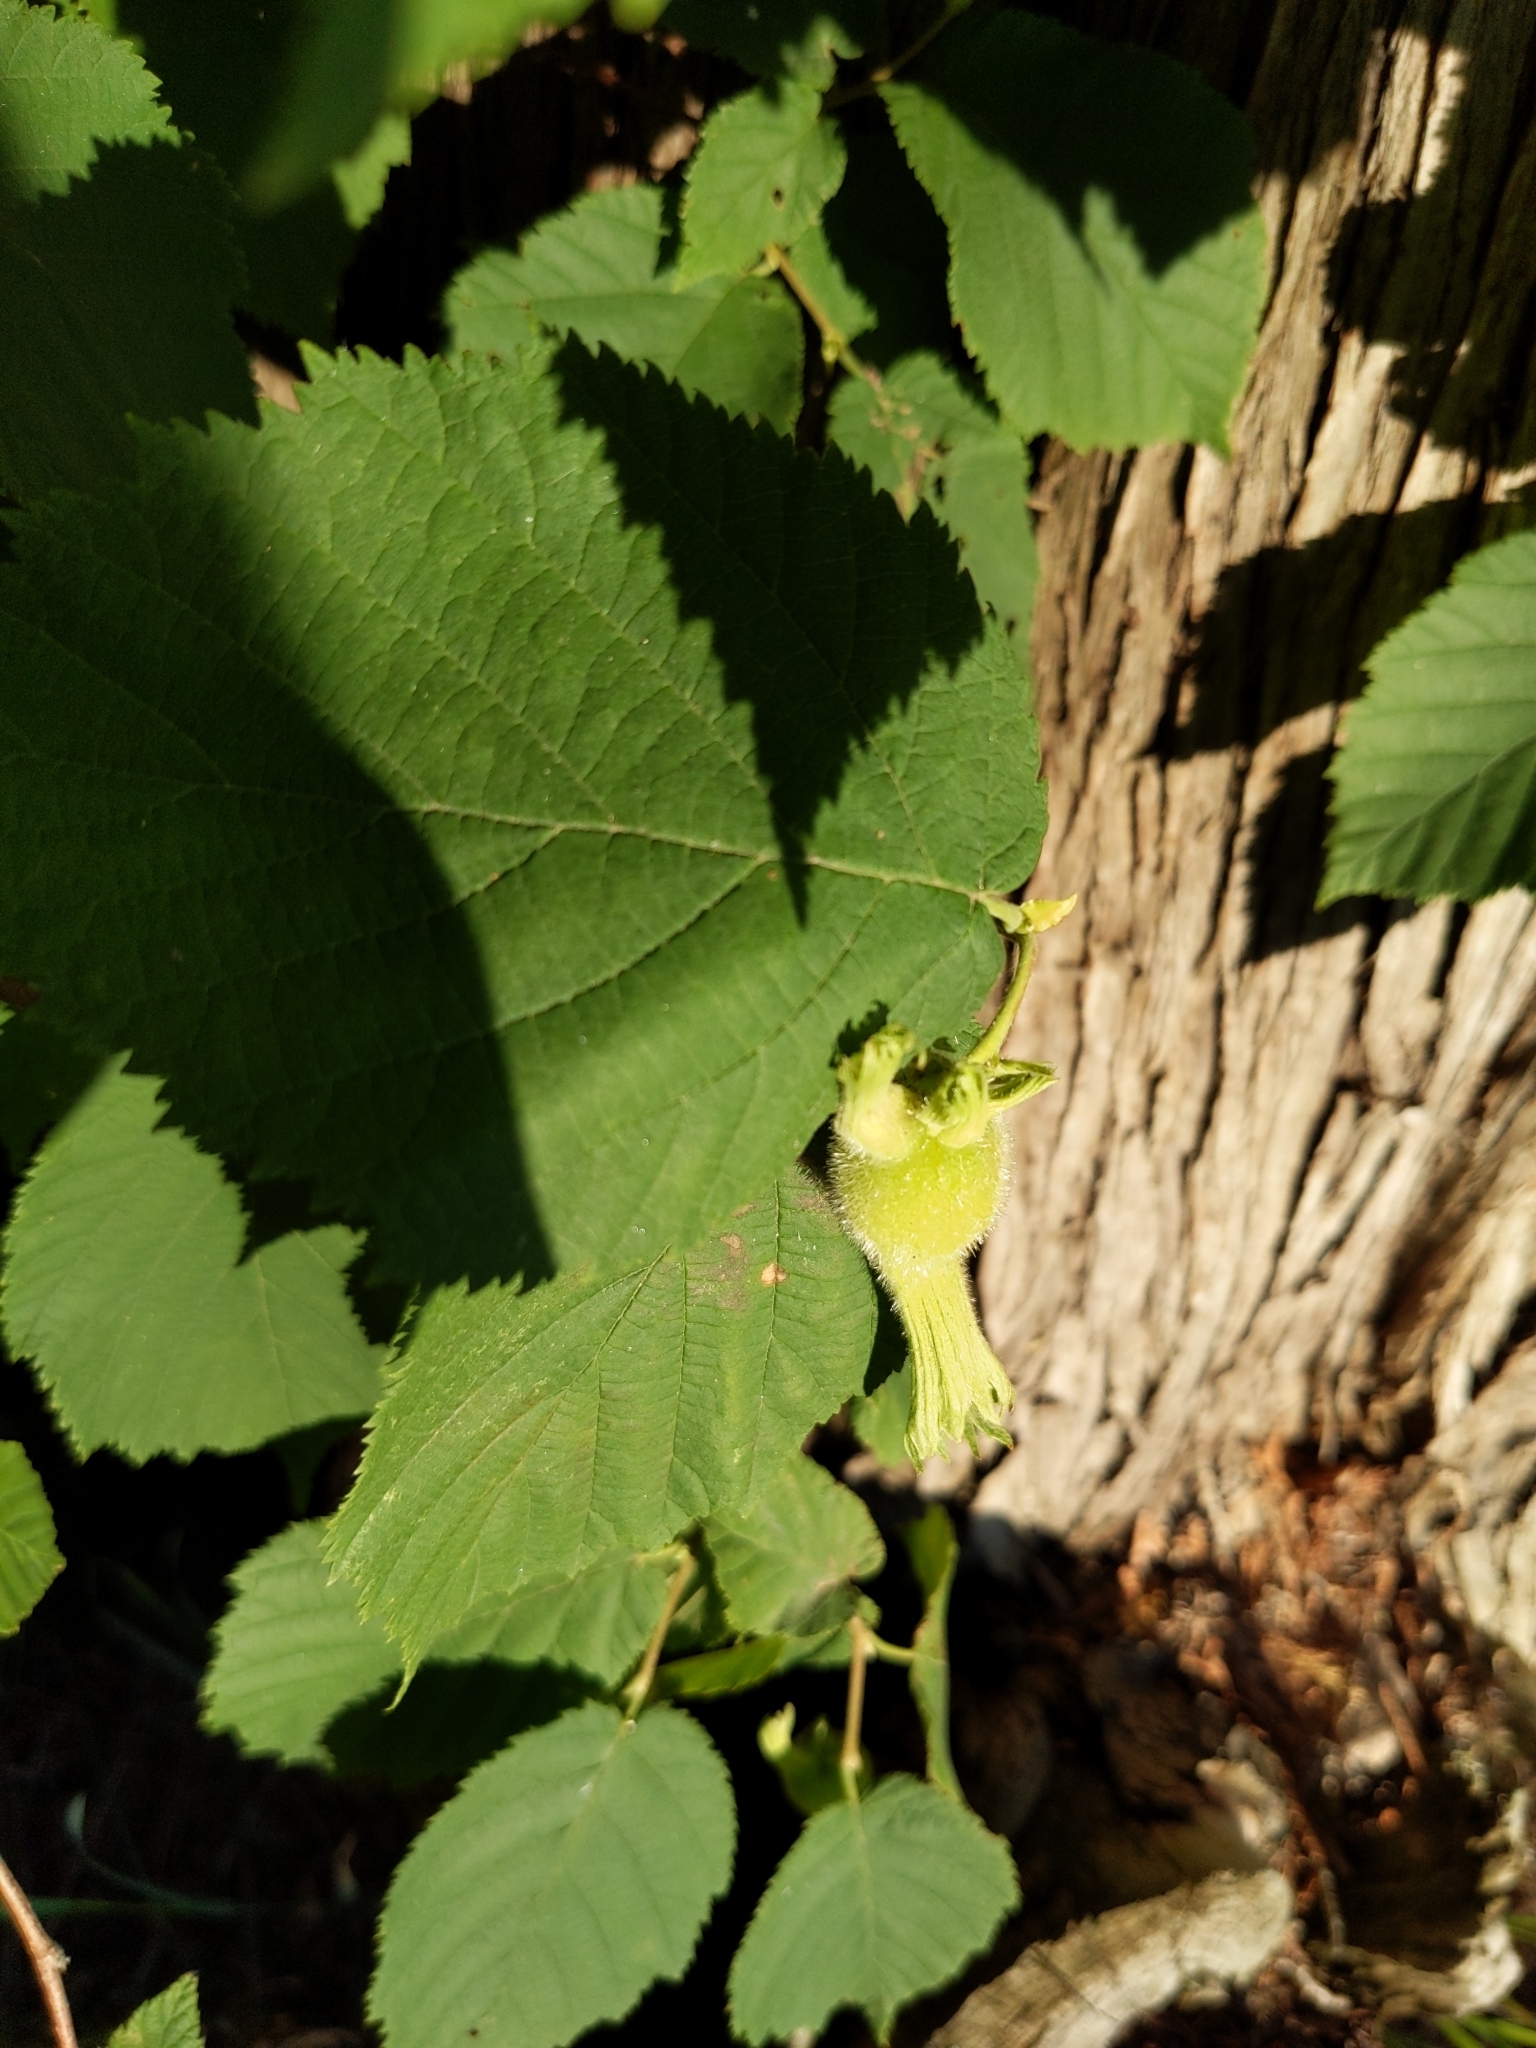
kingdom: Plantae
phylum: Tracheophyta
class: Magnoliopsida
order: Fagales
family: Betulaceae
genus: Corylus
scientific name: Corylus cornuta
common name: Beaked hazel
